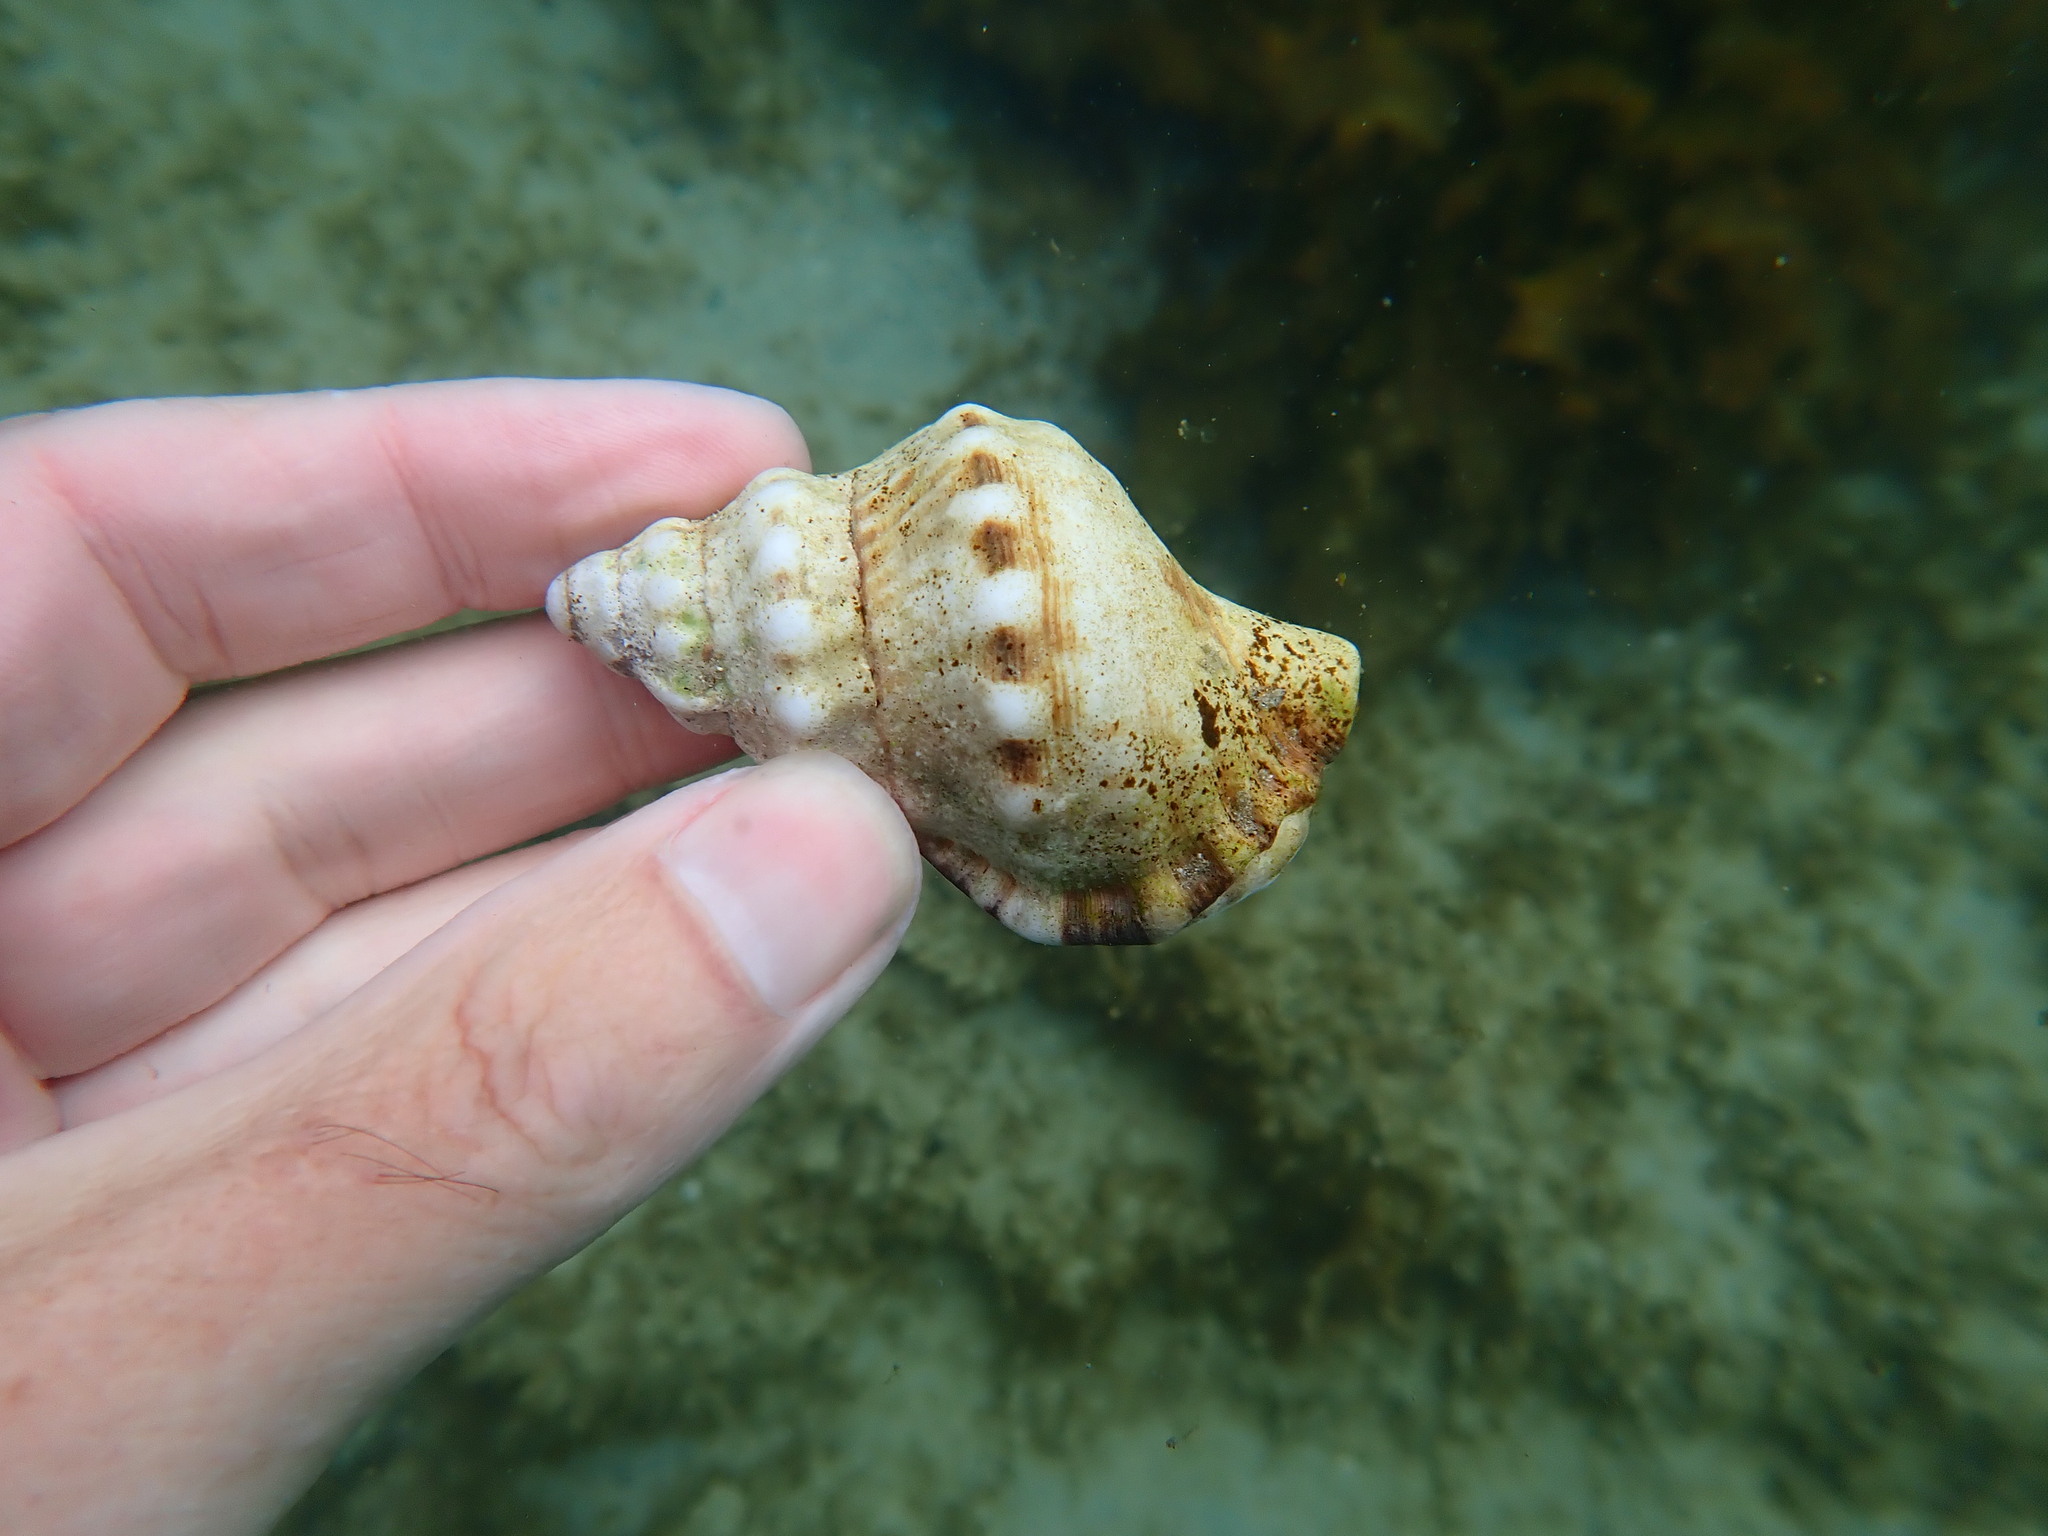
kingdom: Animalia
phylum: Mollusca
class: Gastropoda
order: Littorinimorpha
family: Ranellidae
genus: Ranella
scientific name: Ranella australasia
